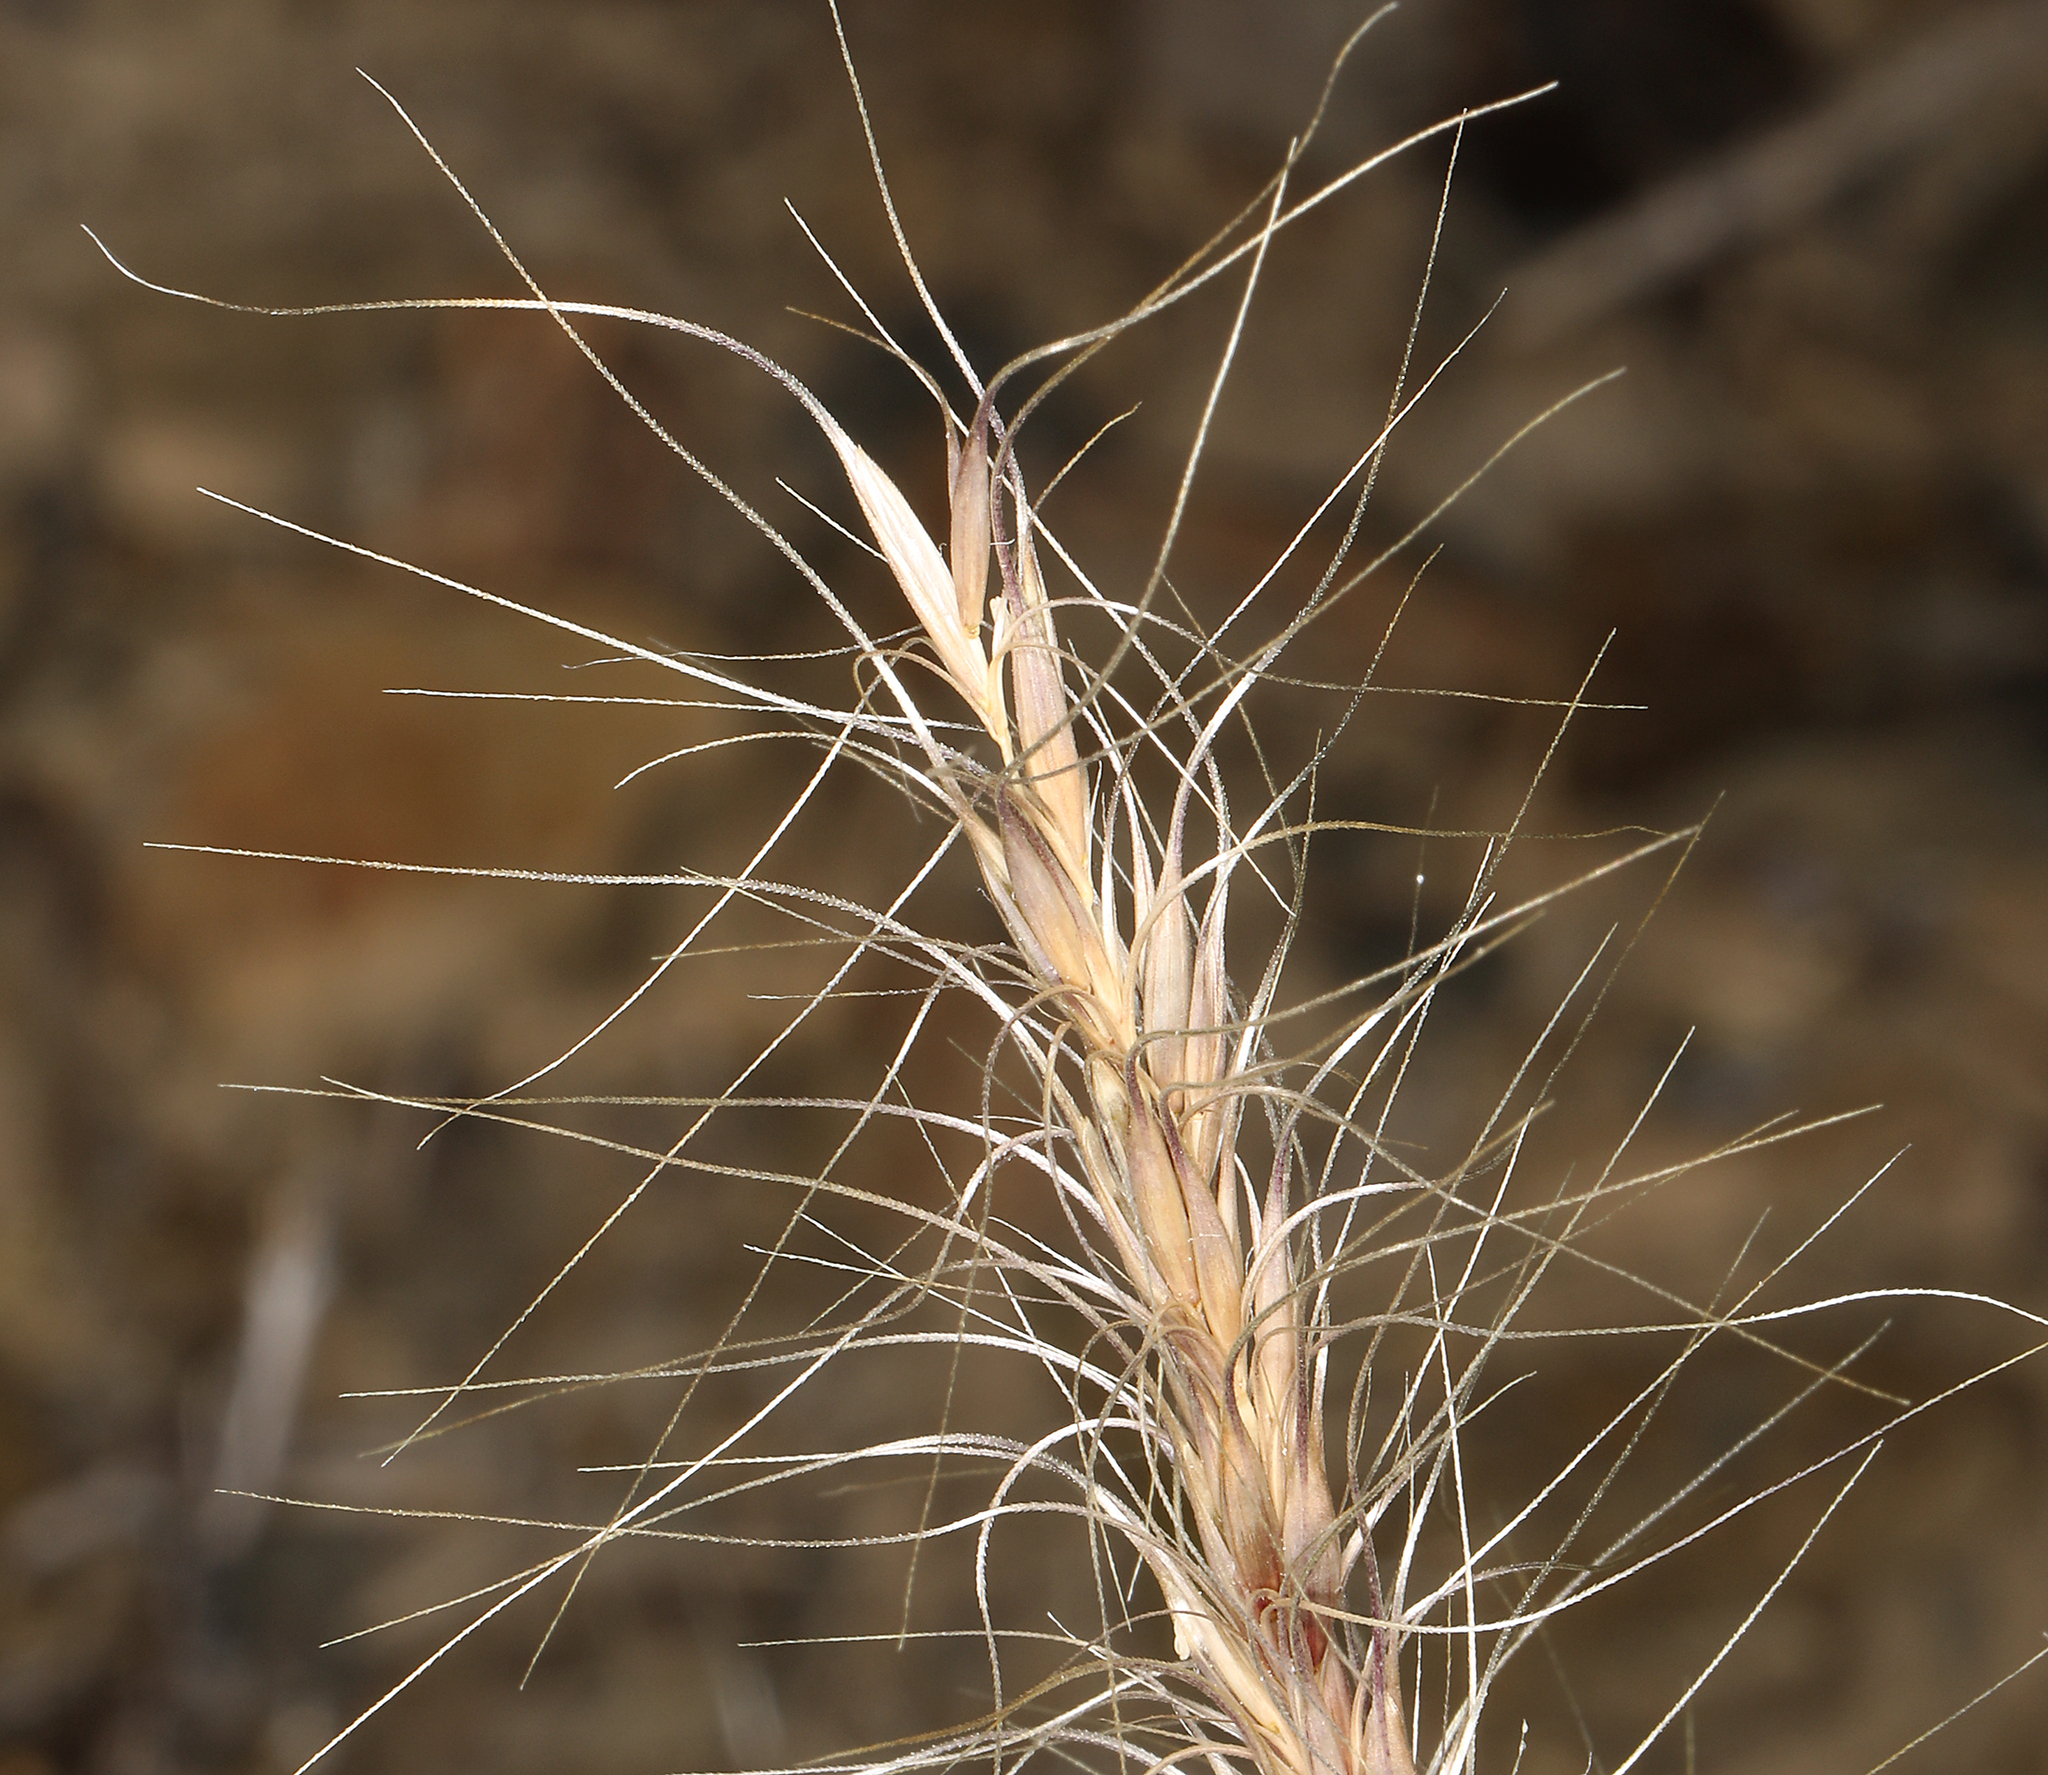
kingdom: Plantae
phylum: Tracheophyta
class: Liliopsida
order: Poales
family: Poaceae
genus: Elymus
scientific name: Elymus elymoides
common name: Bottlebrush squirreltail
